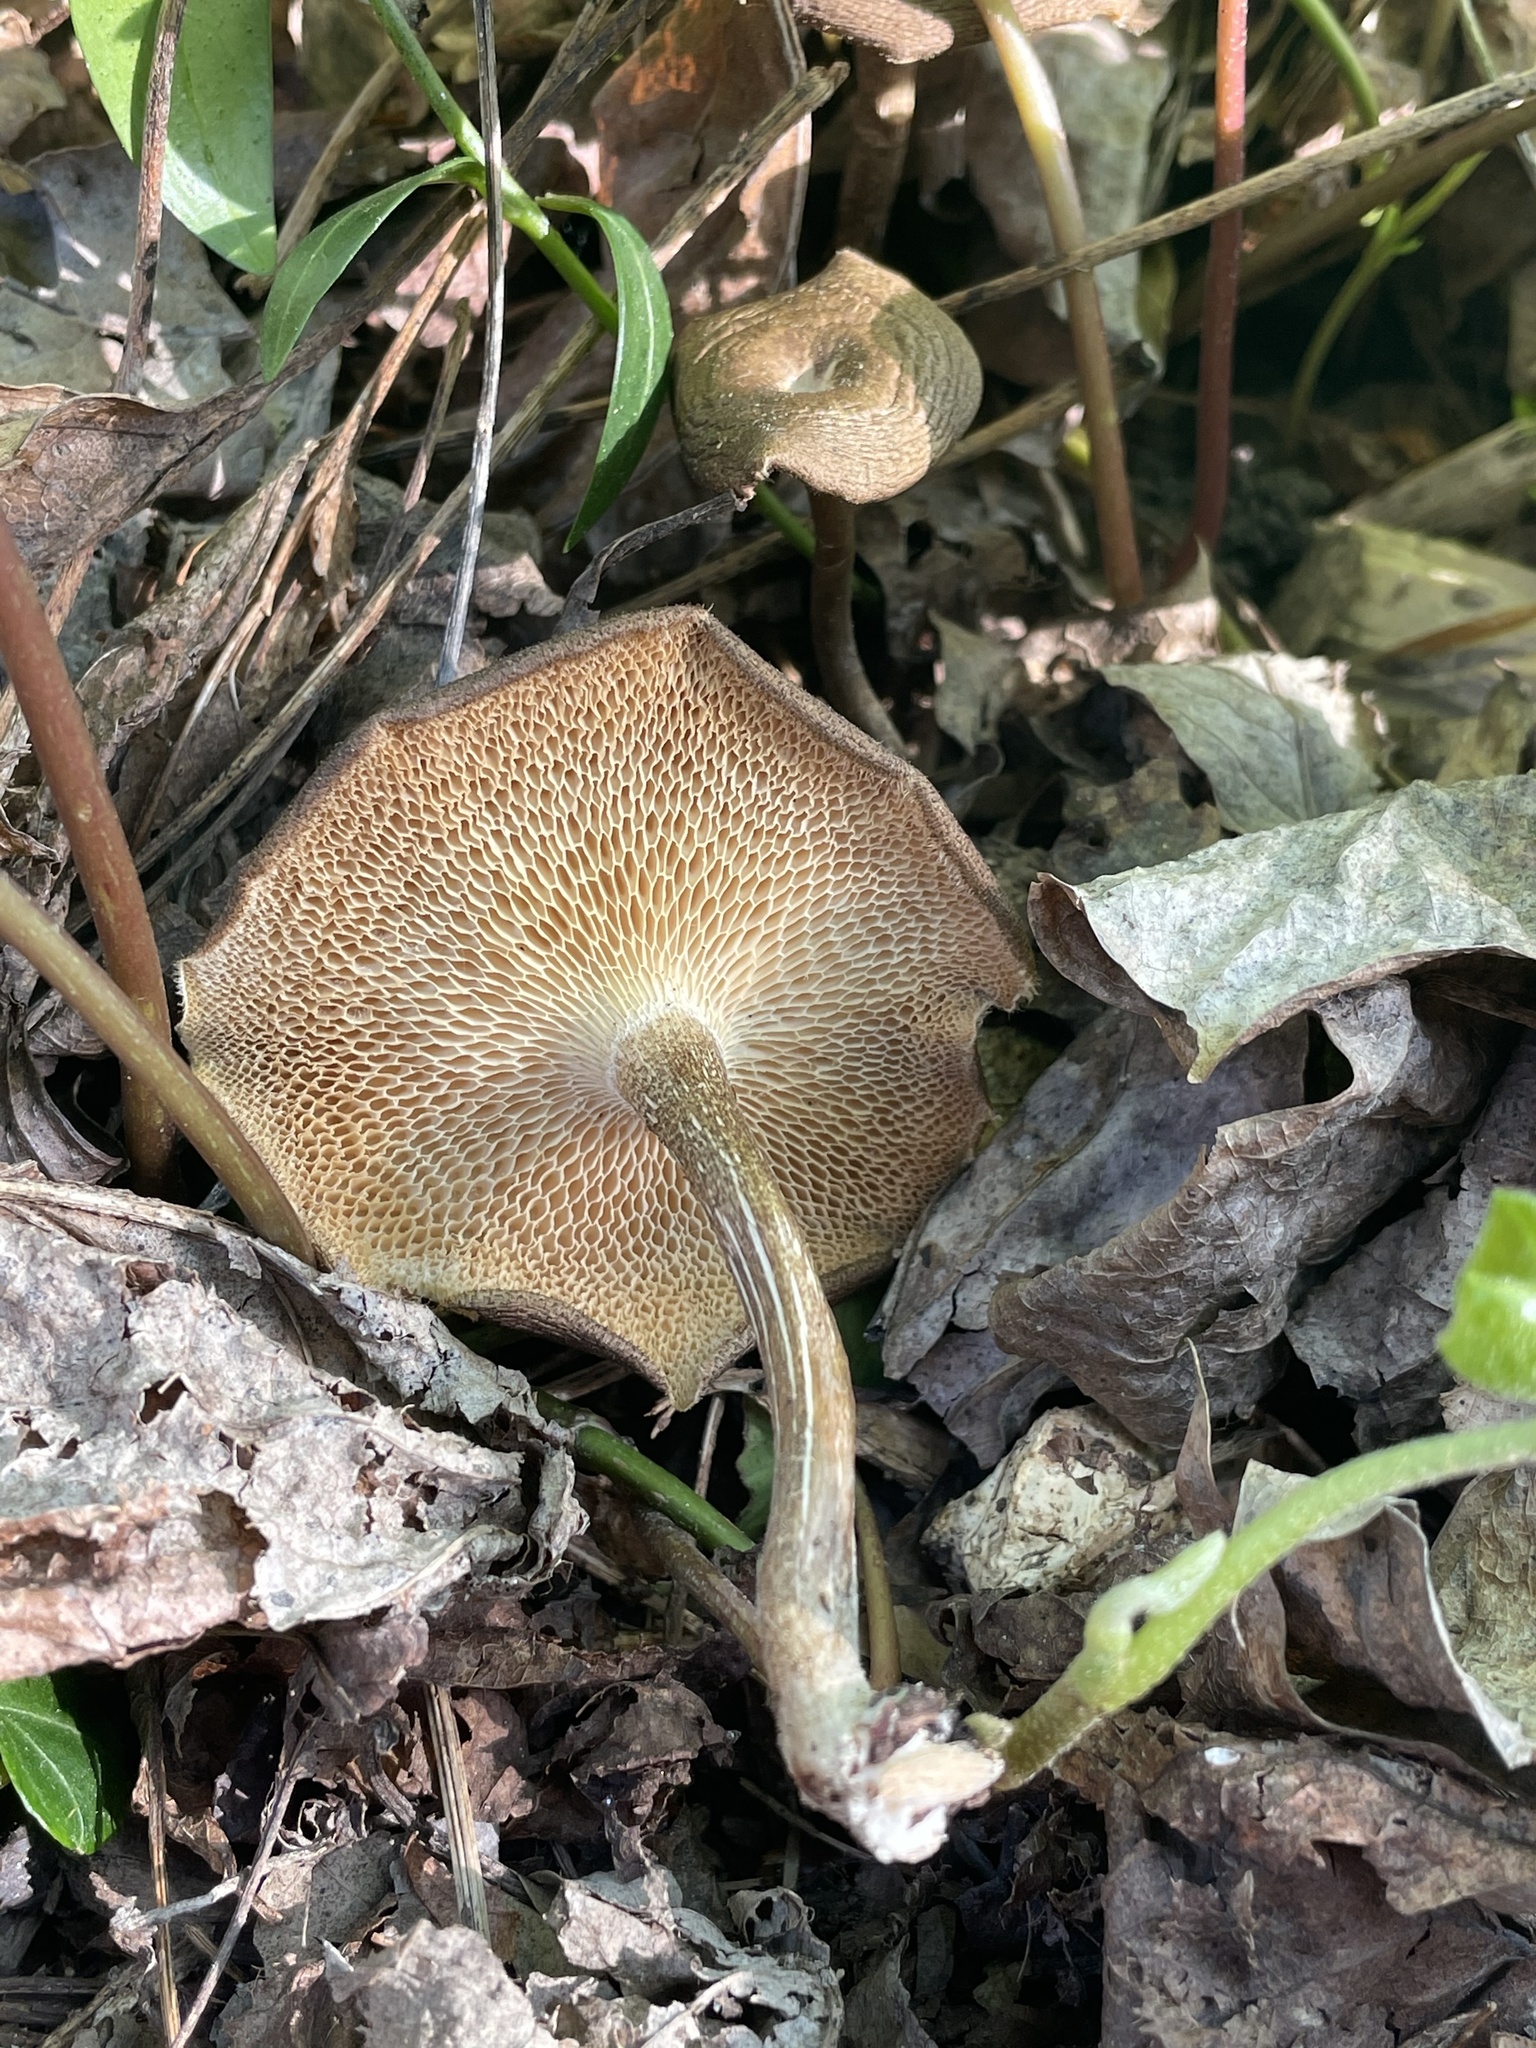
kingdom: Fungi
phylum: Basidiomycota
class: Agaricomycetes
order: Polyporales
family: Polyporaceae
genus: Lentinus
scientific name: Lentinus arcularius
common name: Spring polypore
